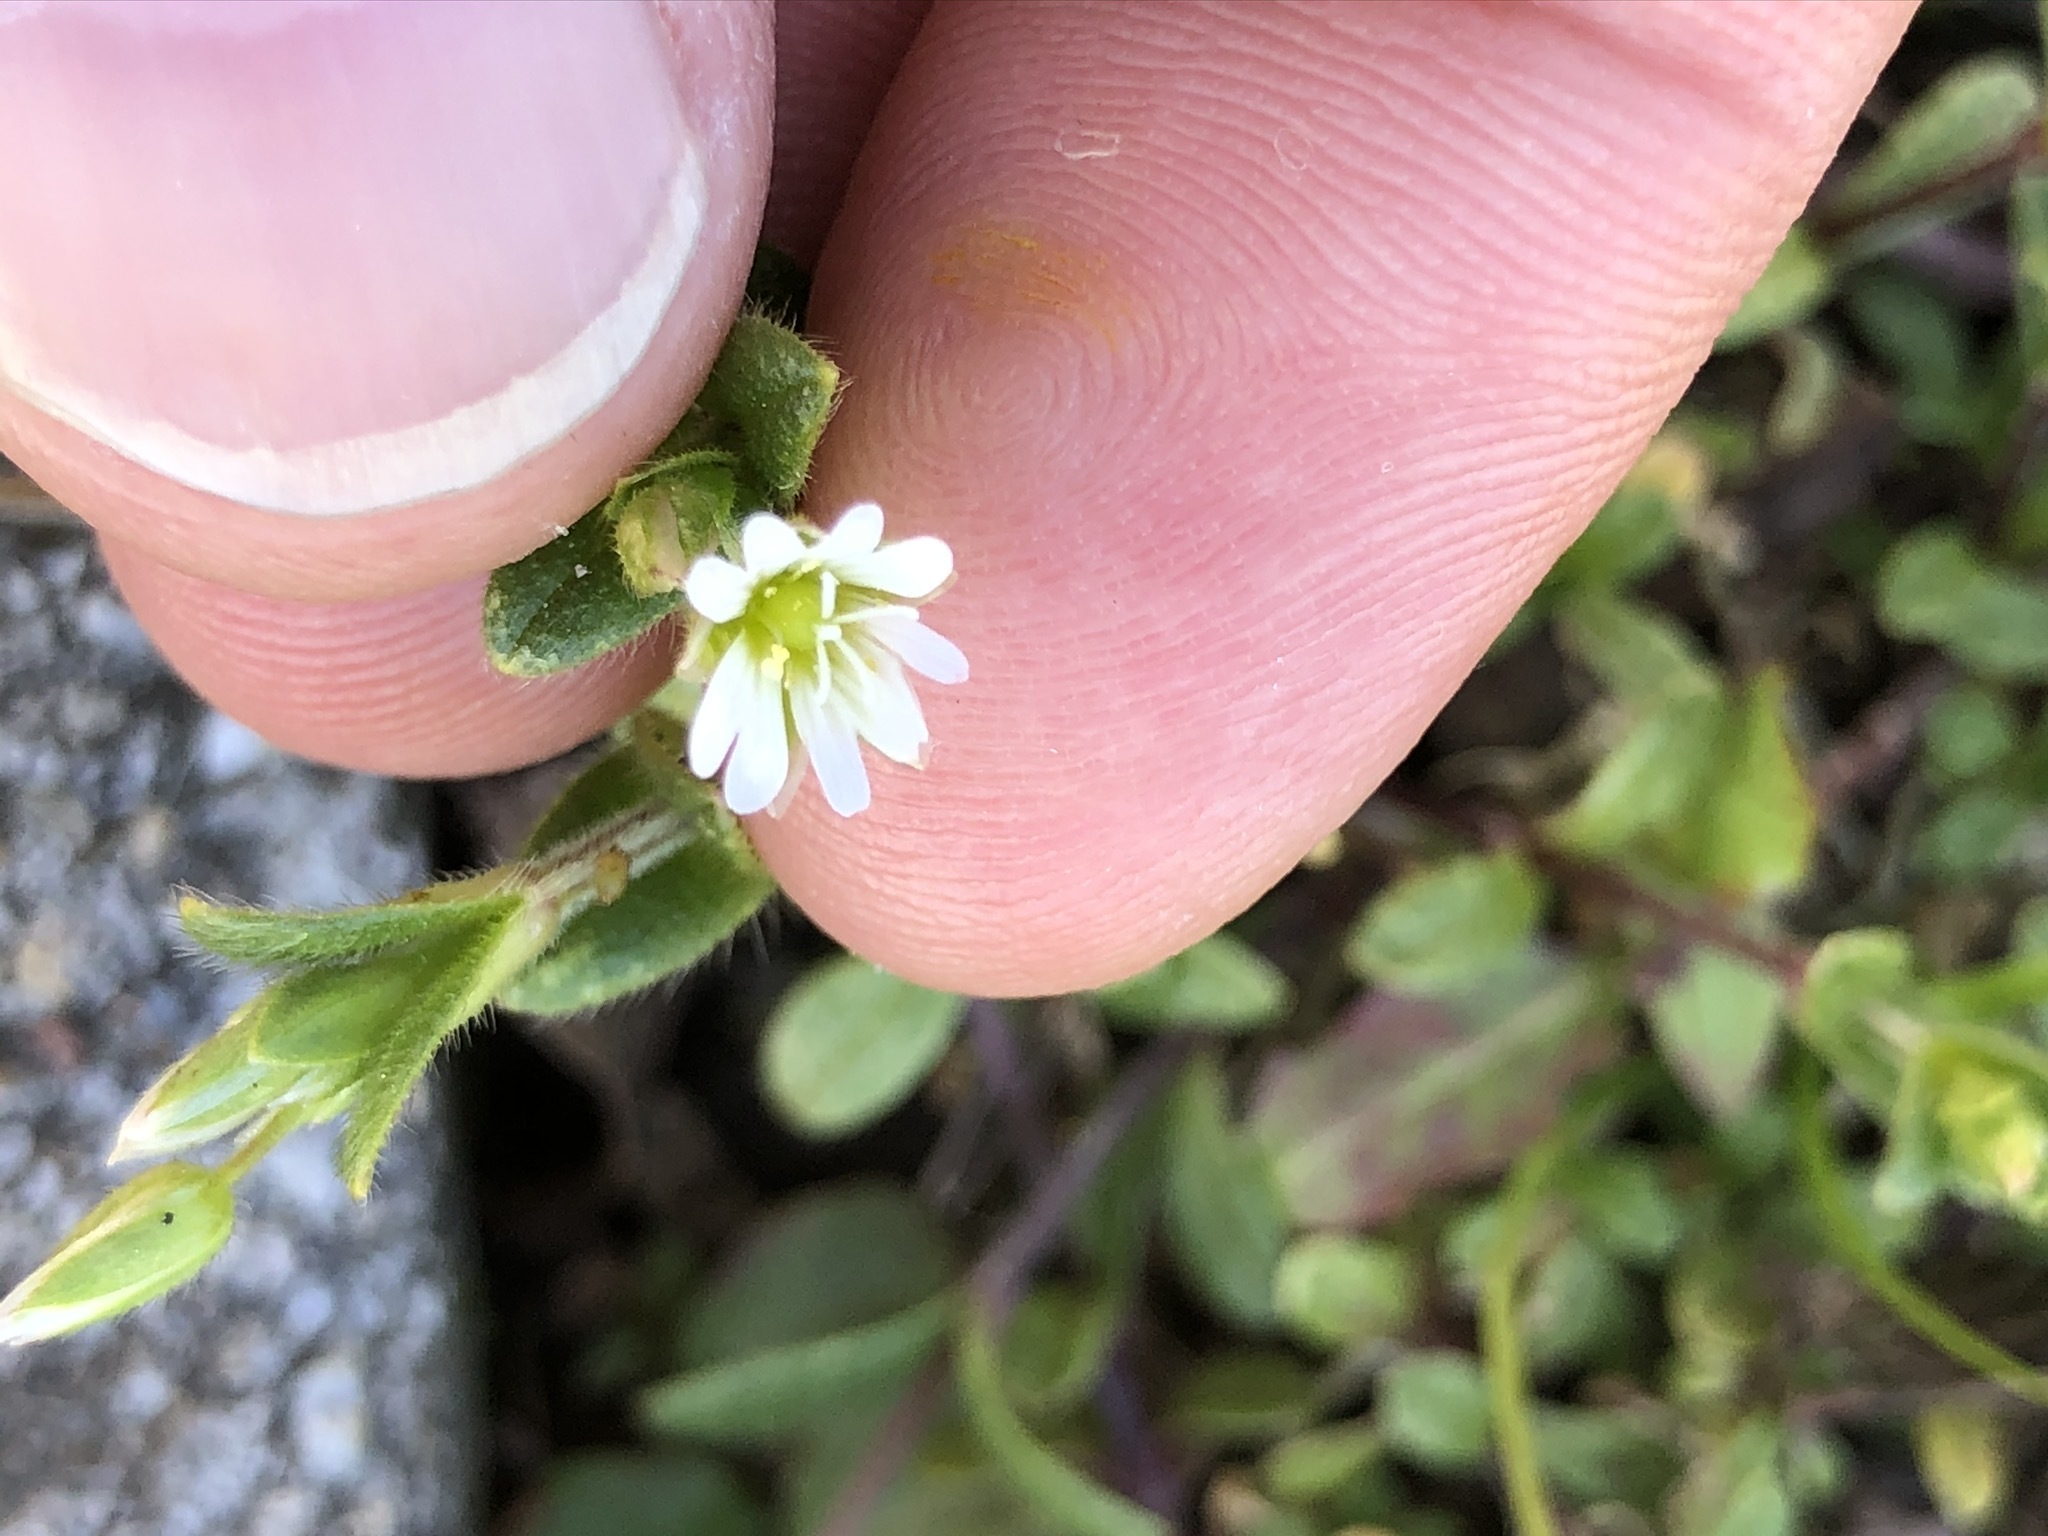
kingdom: Plantae
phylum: Tracheophyta
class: Magnoliopsida
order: Caryophyllales
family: Caryophyllaceae
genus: Cerastium
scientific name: Cerastium holosteoides
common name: Big chickweed
